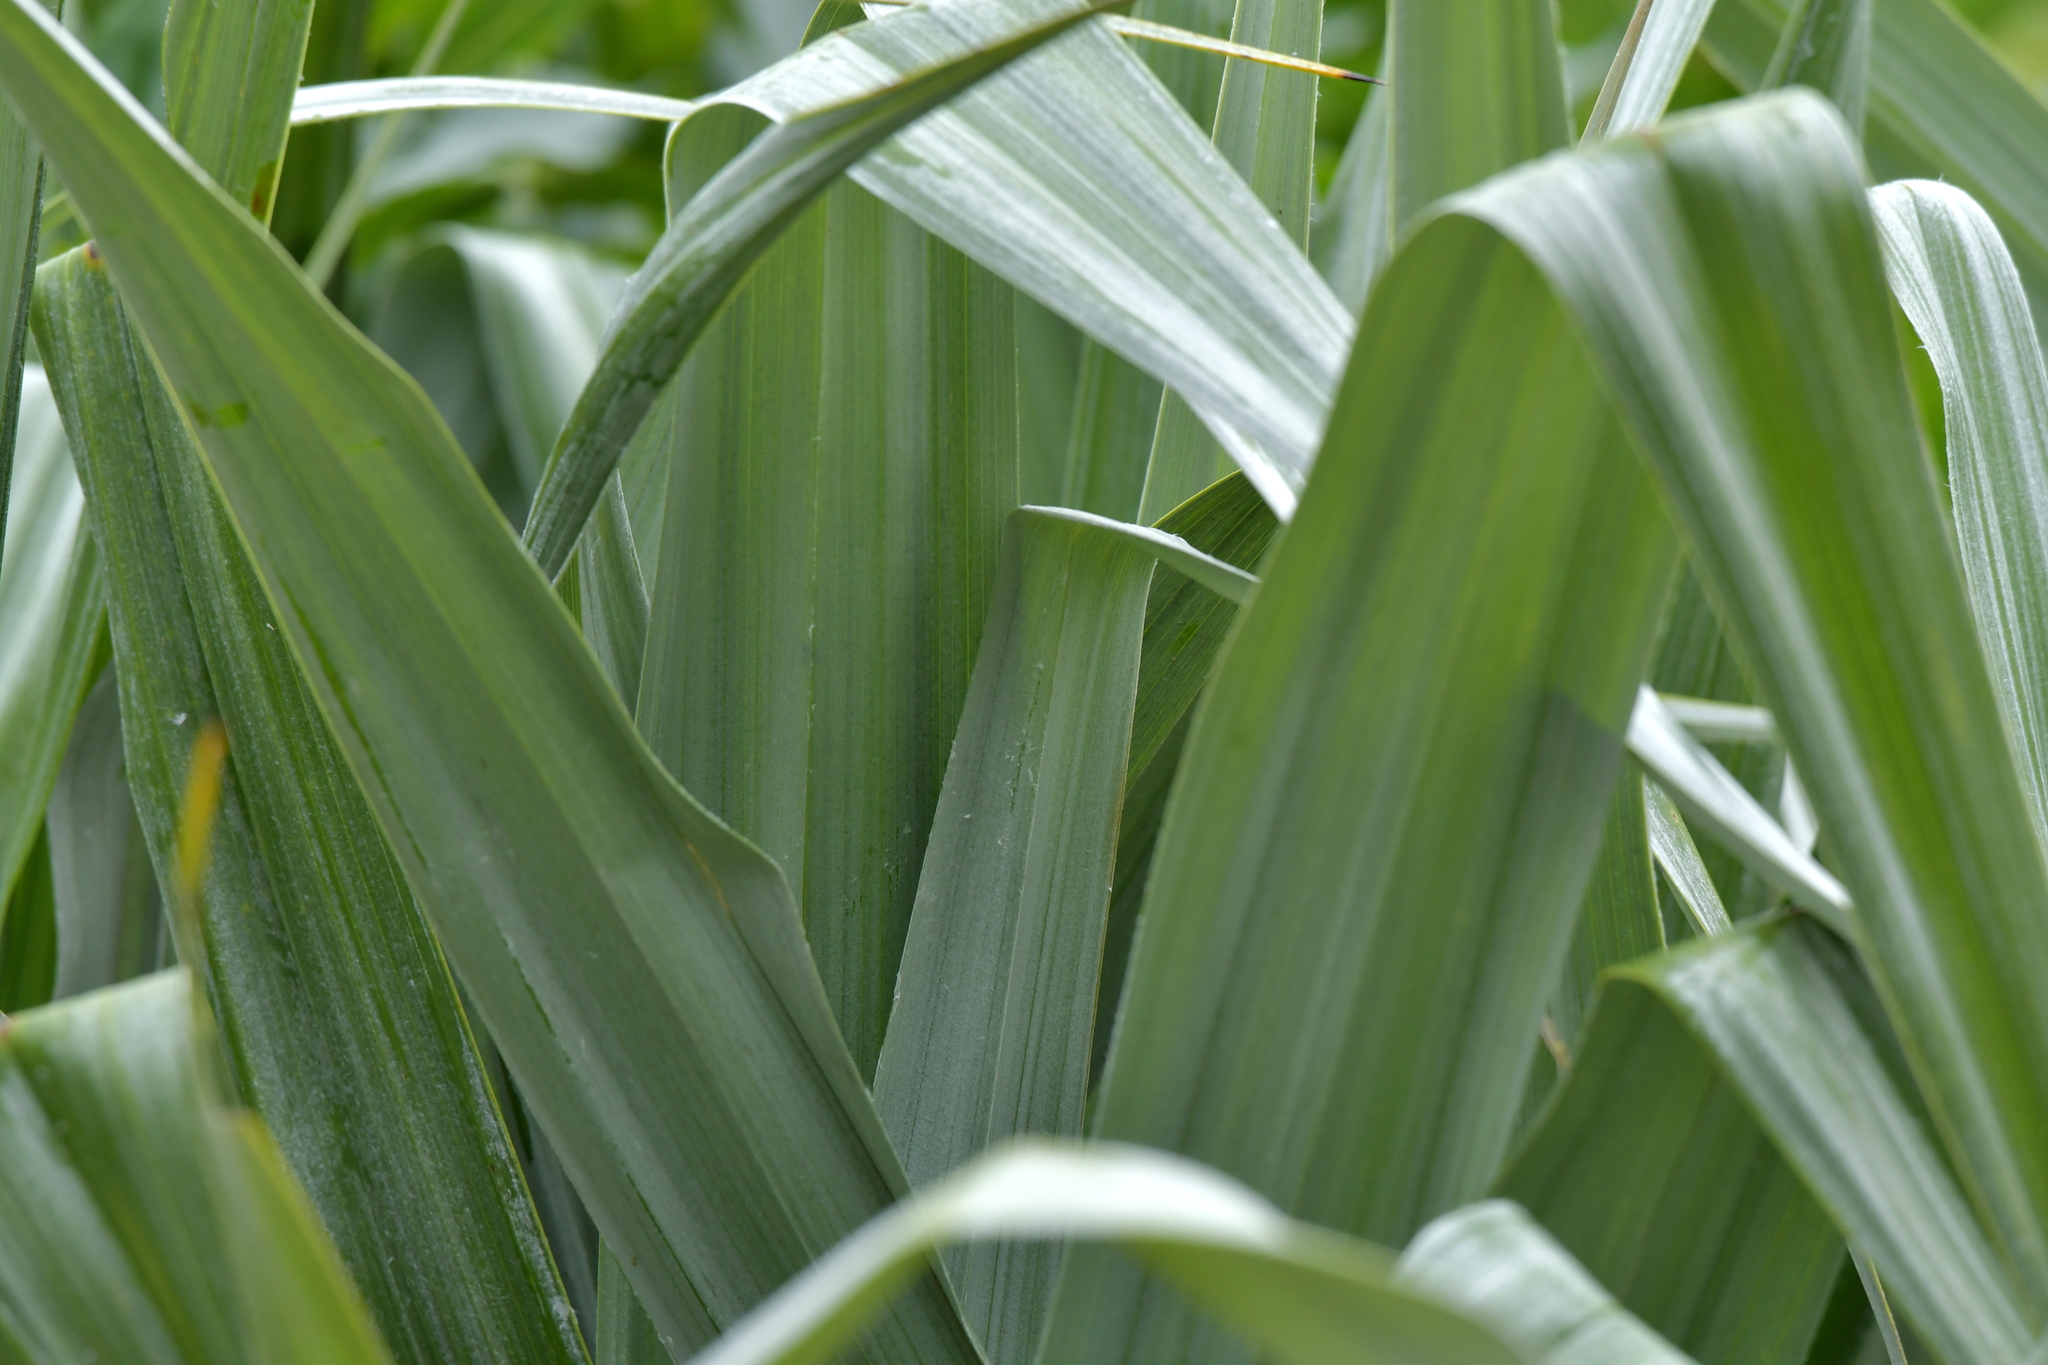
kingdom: Plantae
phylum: Tracheophyta
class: Liliopsida
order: Asparagales
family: Asteliaceae
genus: Astelia
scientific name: Astelia chathamica
